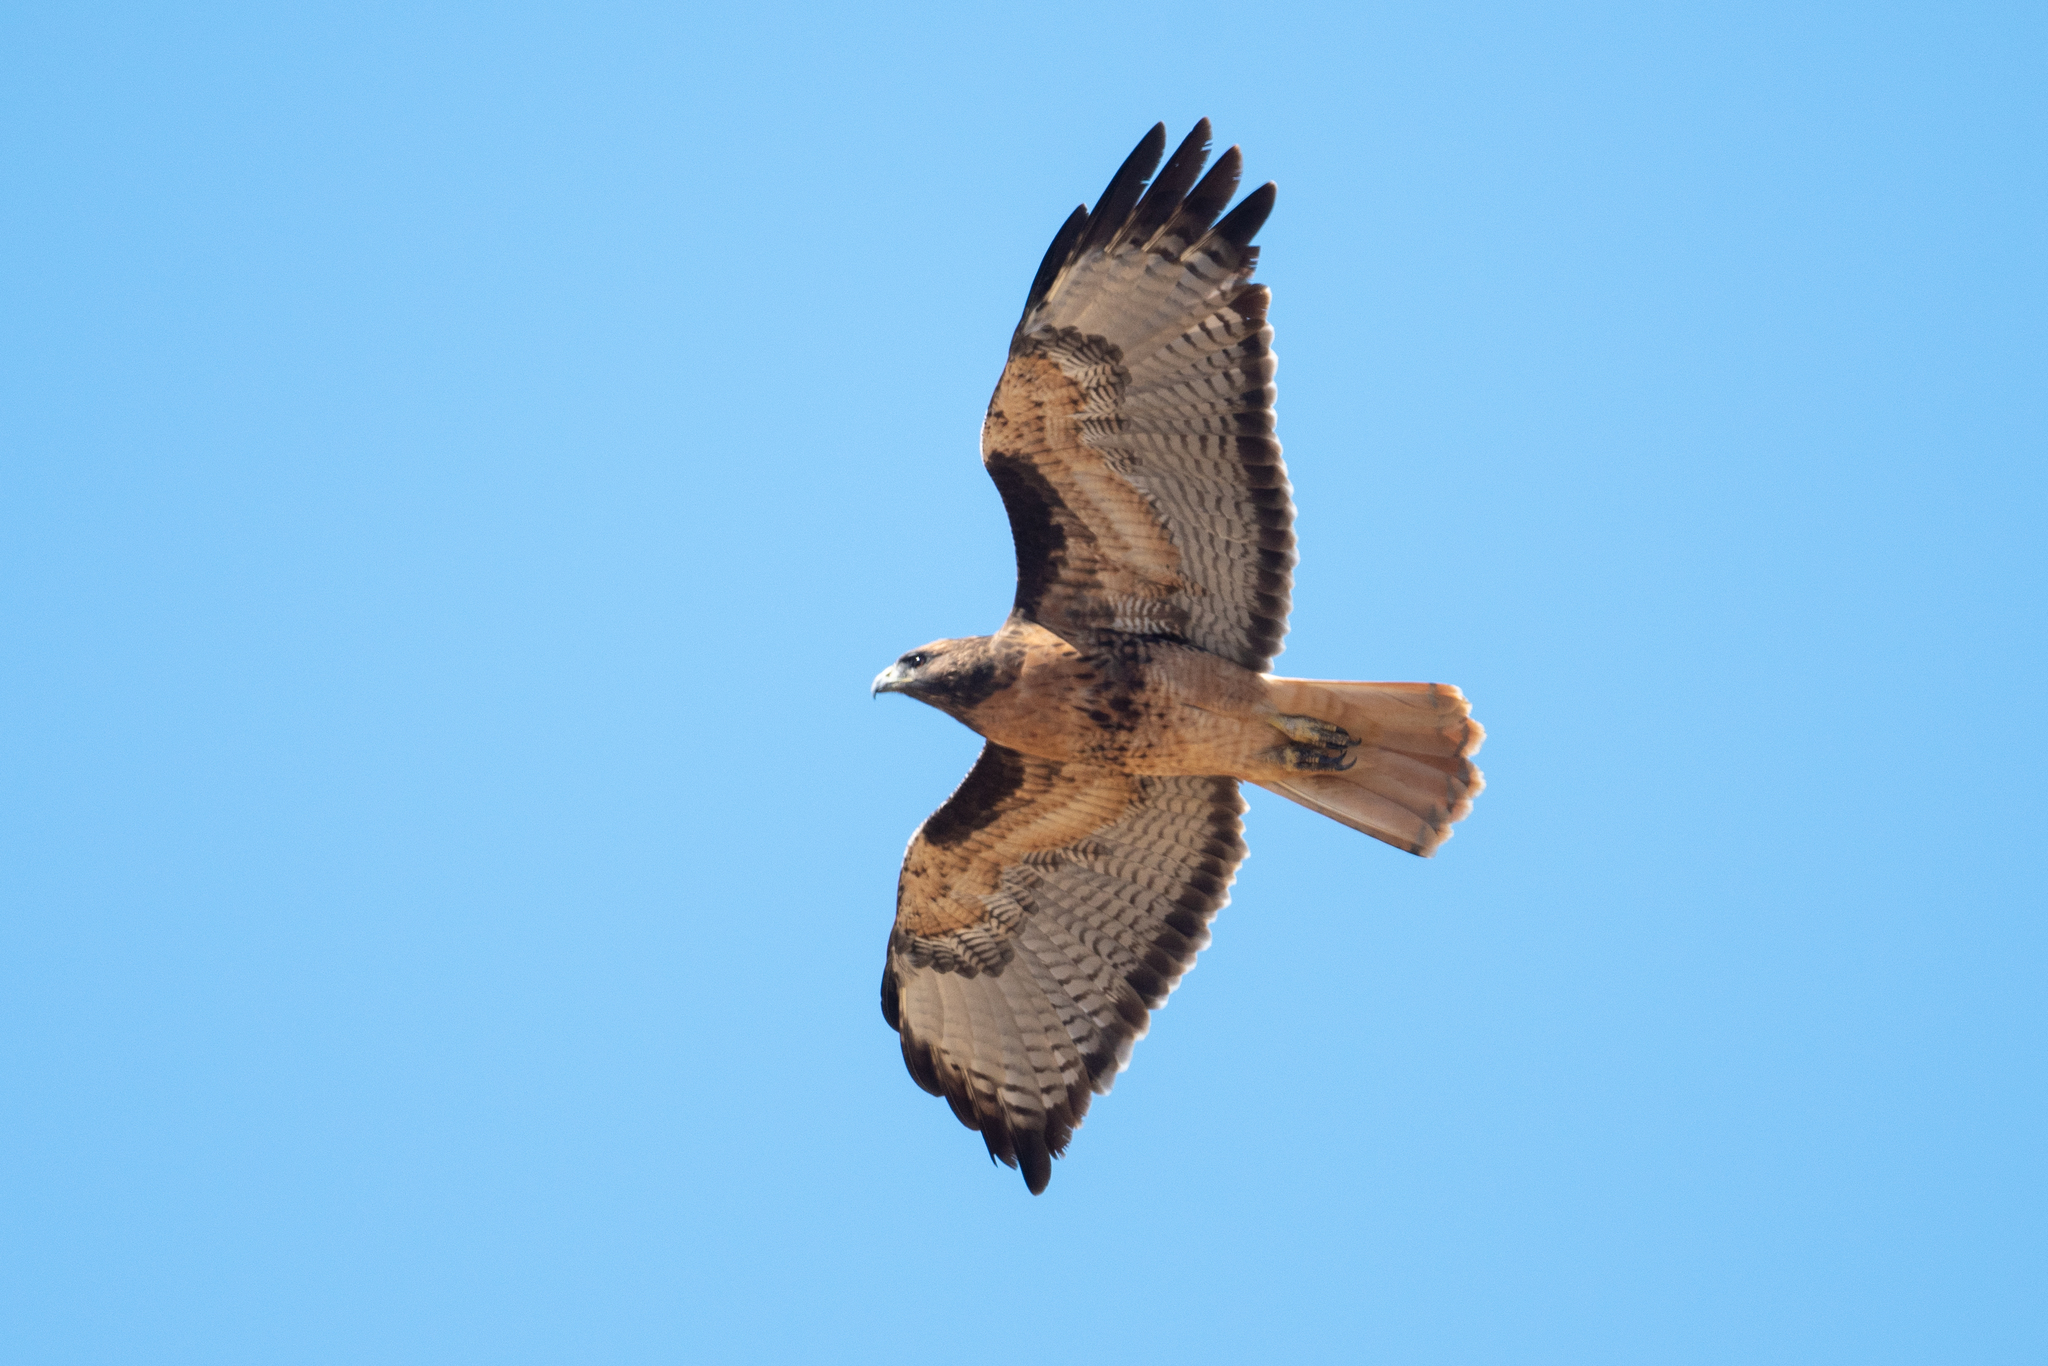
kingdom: Animalia
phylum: Chordata
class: Aves
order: Accipitriformes
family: Accipitridae
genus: Buteo
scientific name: Buteo jamaicensis
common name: Red-tailed hawk
